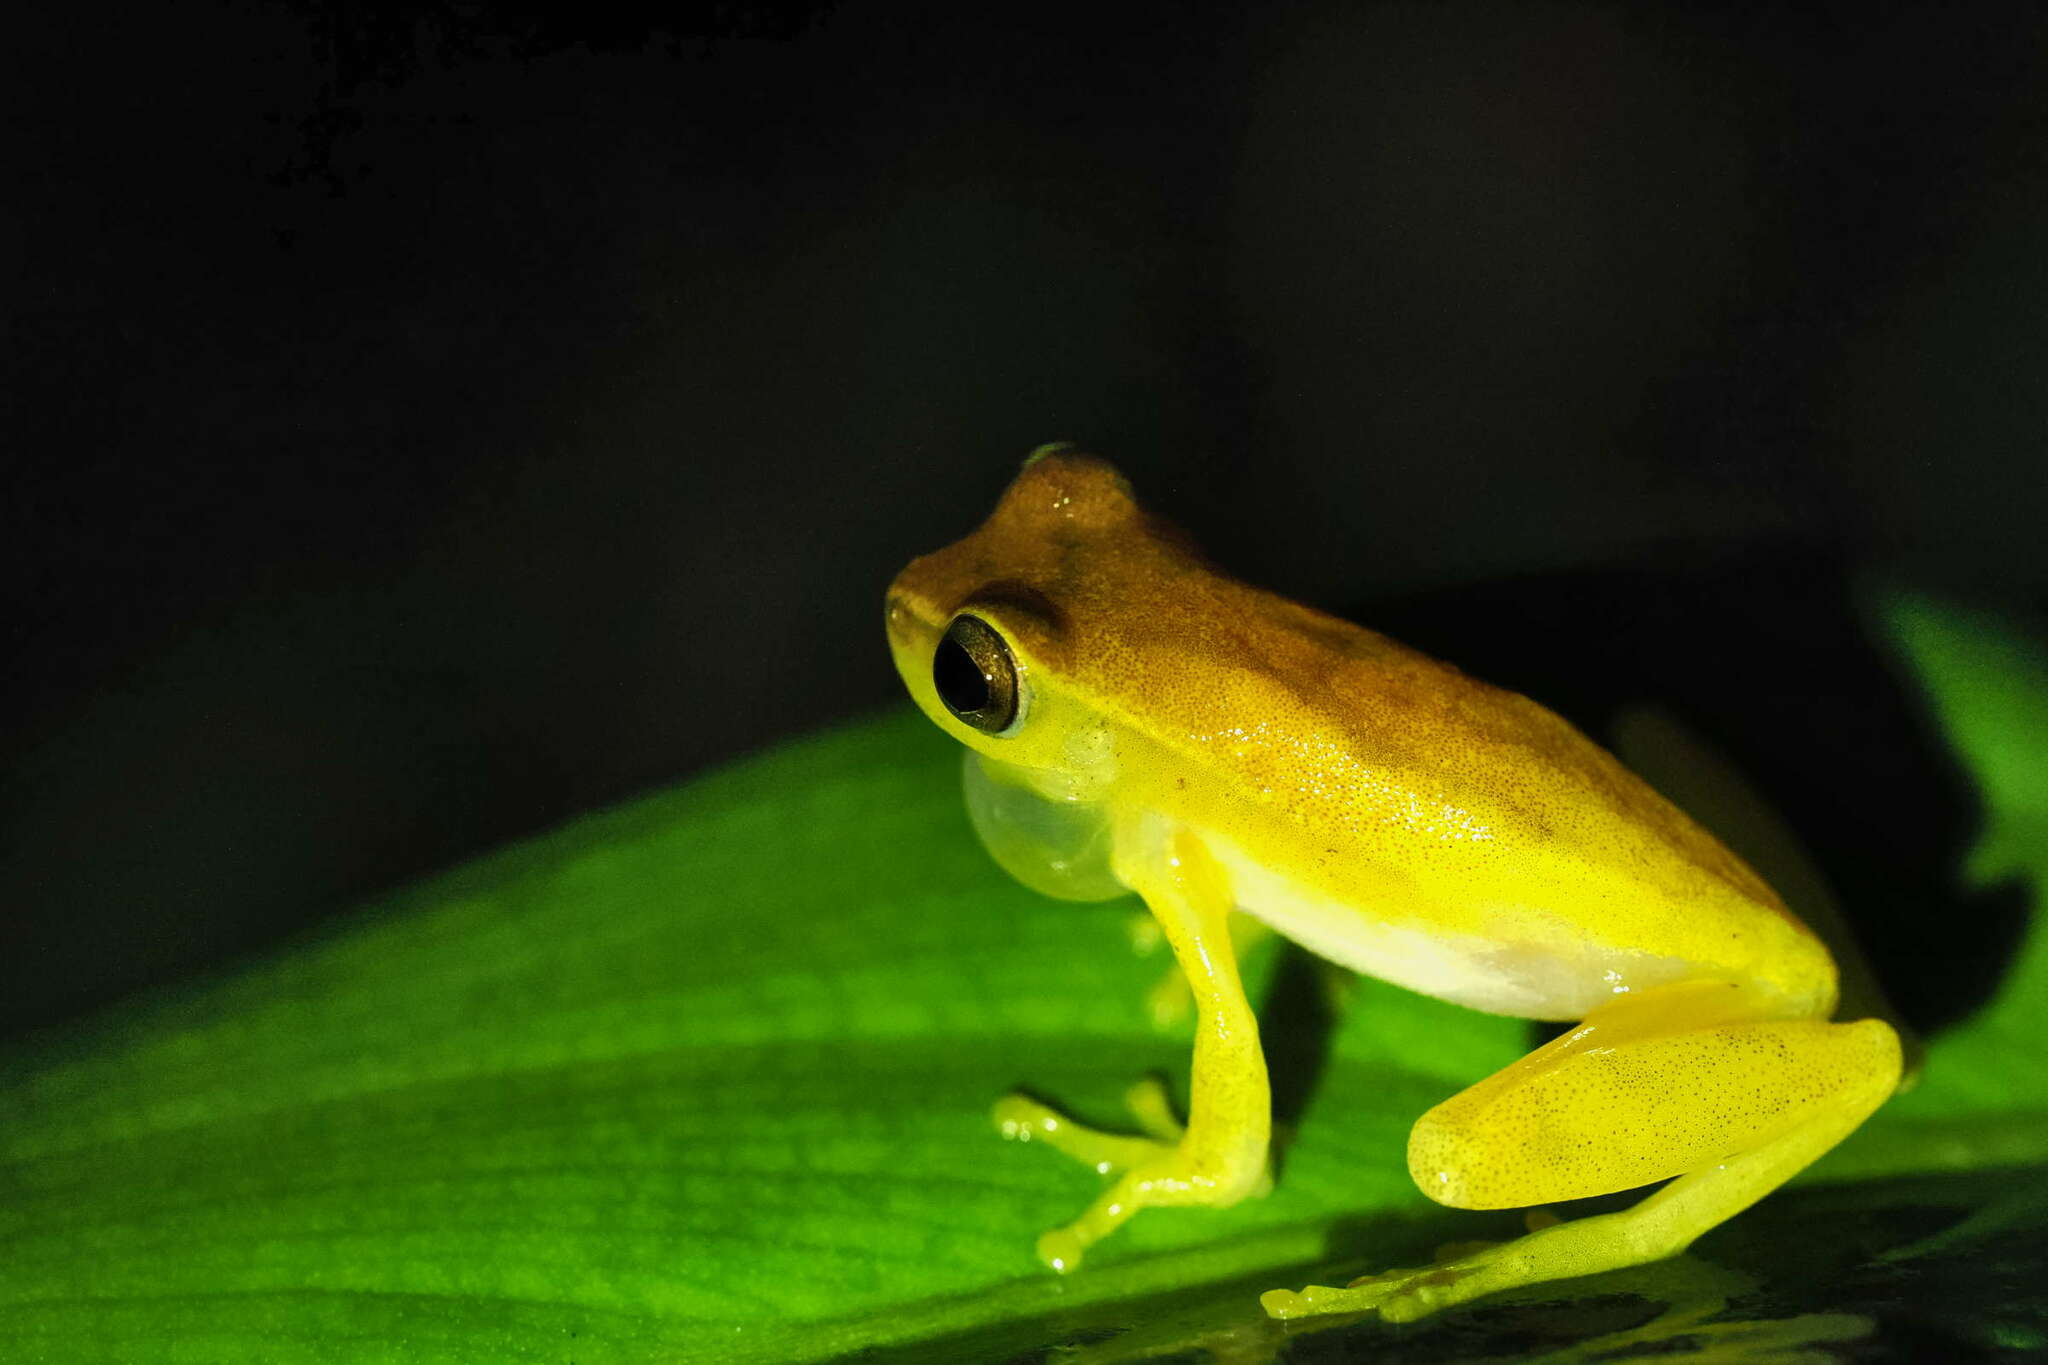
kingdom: Animalia
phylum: Chordata
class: Amphibia
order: Anura
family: Hylidae
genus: Dendropsophus
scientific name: Dendropsophus microcephalus
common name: Small-headed treefrog
